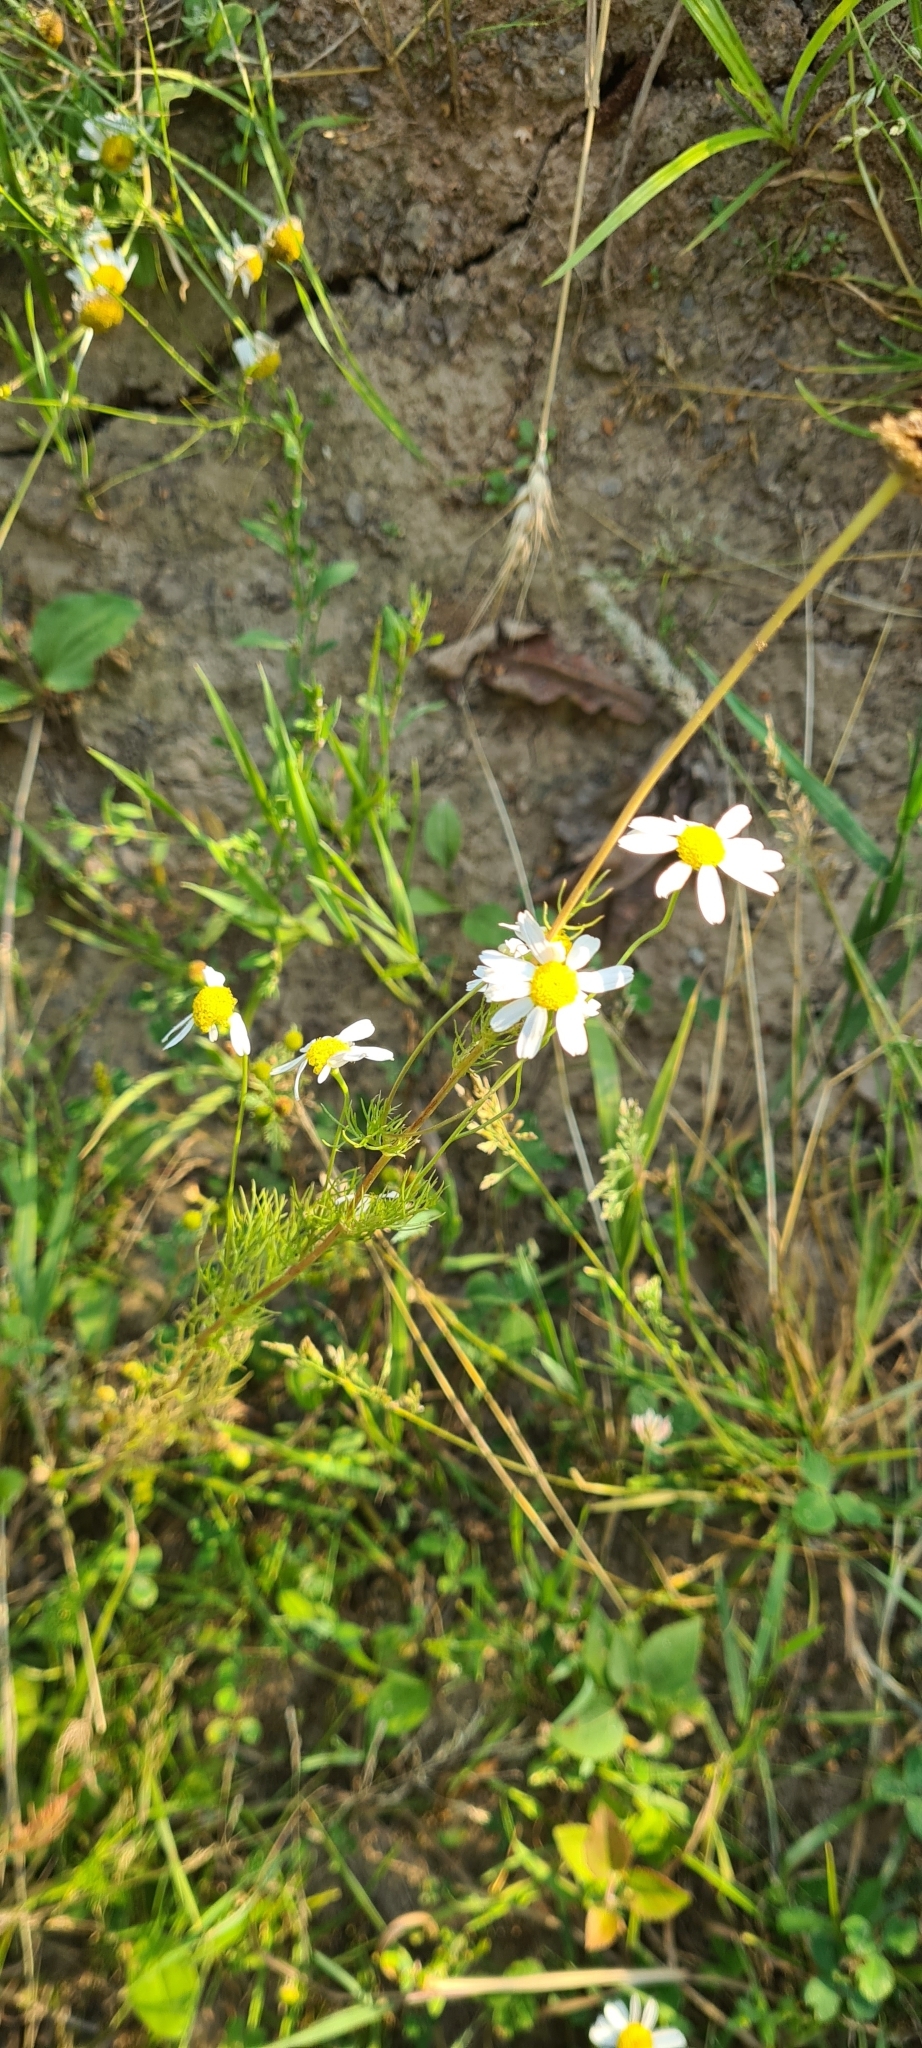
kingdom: Plantae
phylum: Tracheophyta
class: Magnoliopsida
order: Asterales
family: Asteraceae
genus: Tripleurospermum
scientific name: Tripleurospermum inodorum
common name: Scentless mayweed
